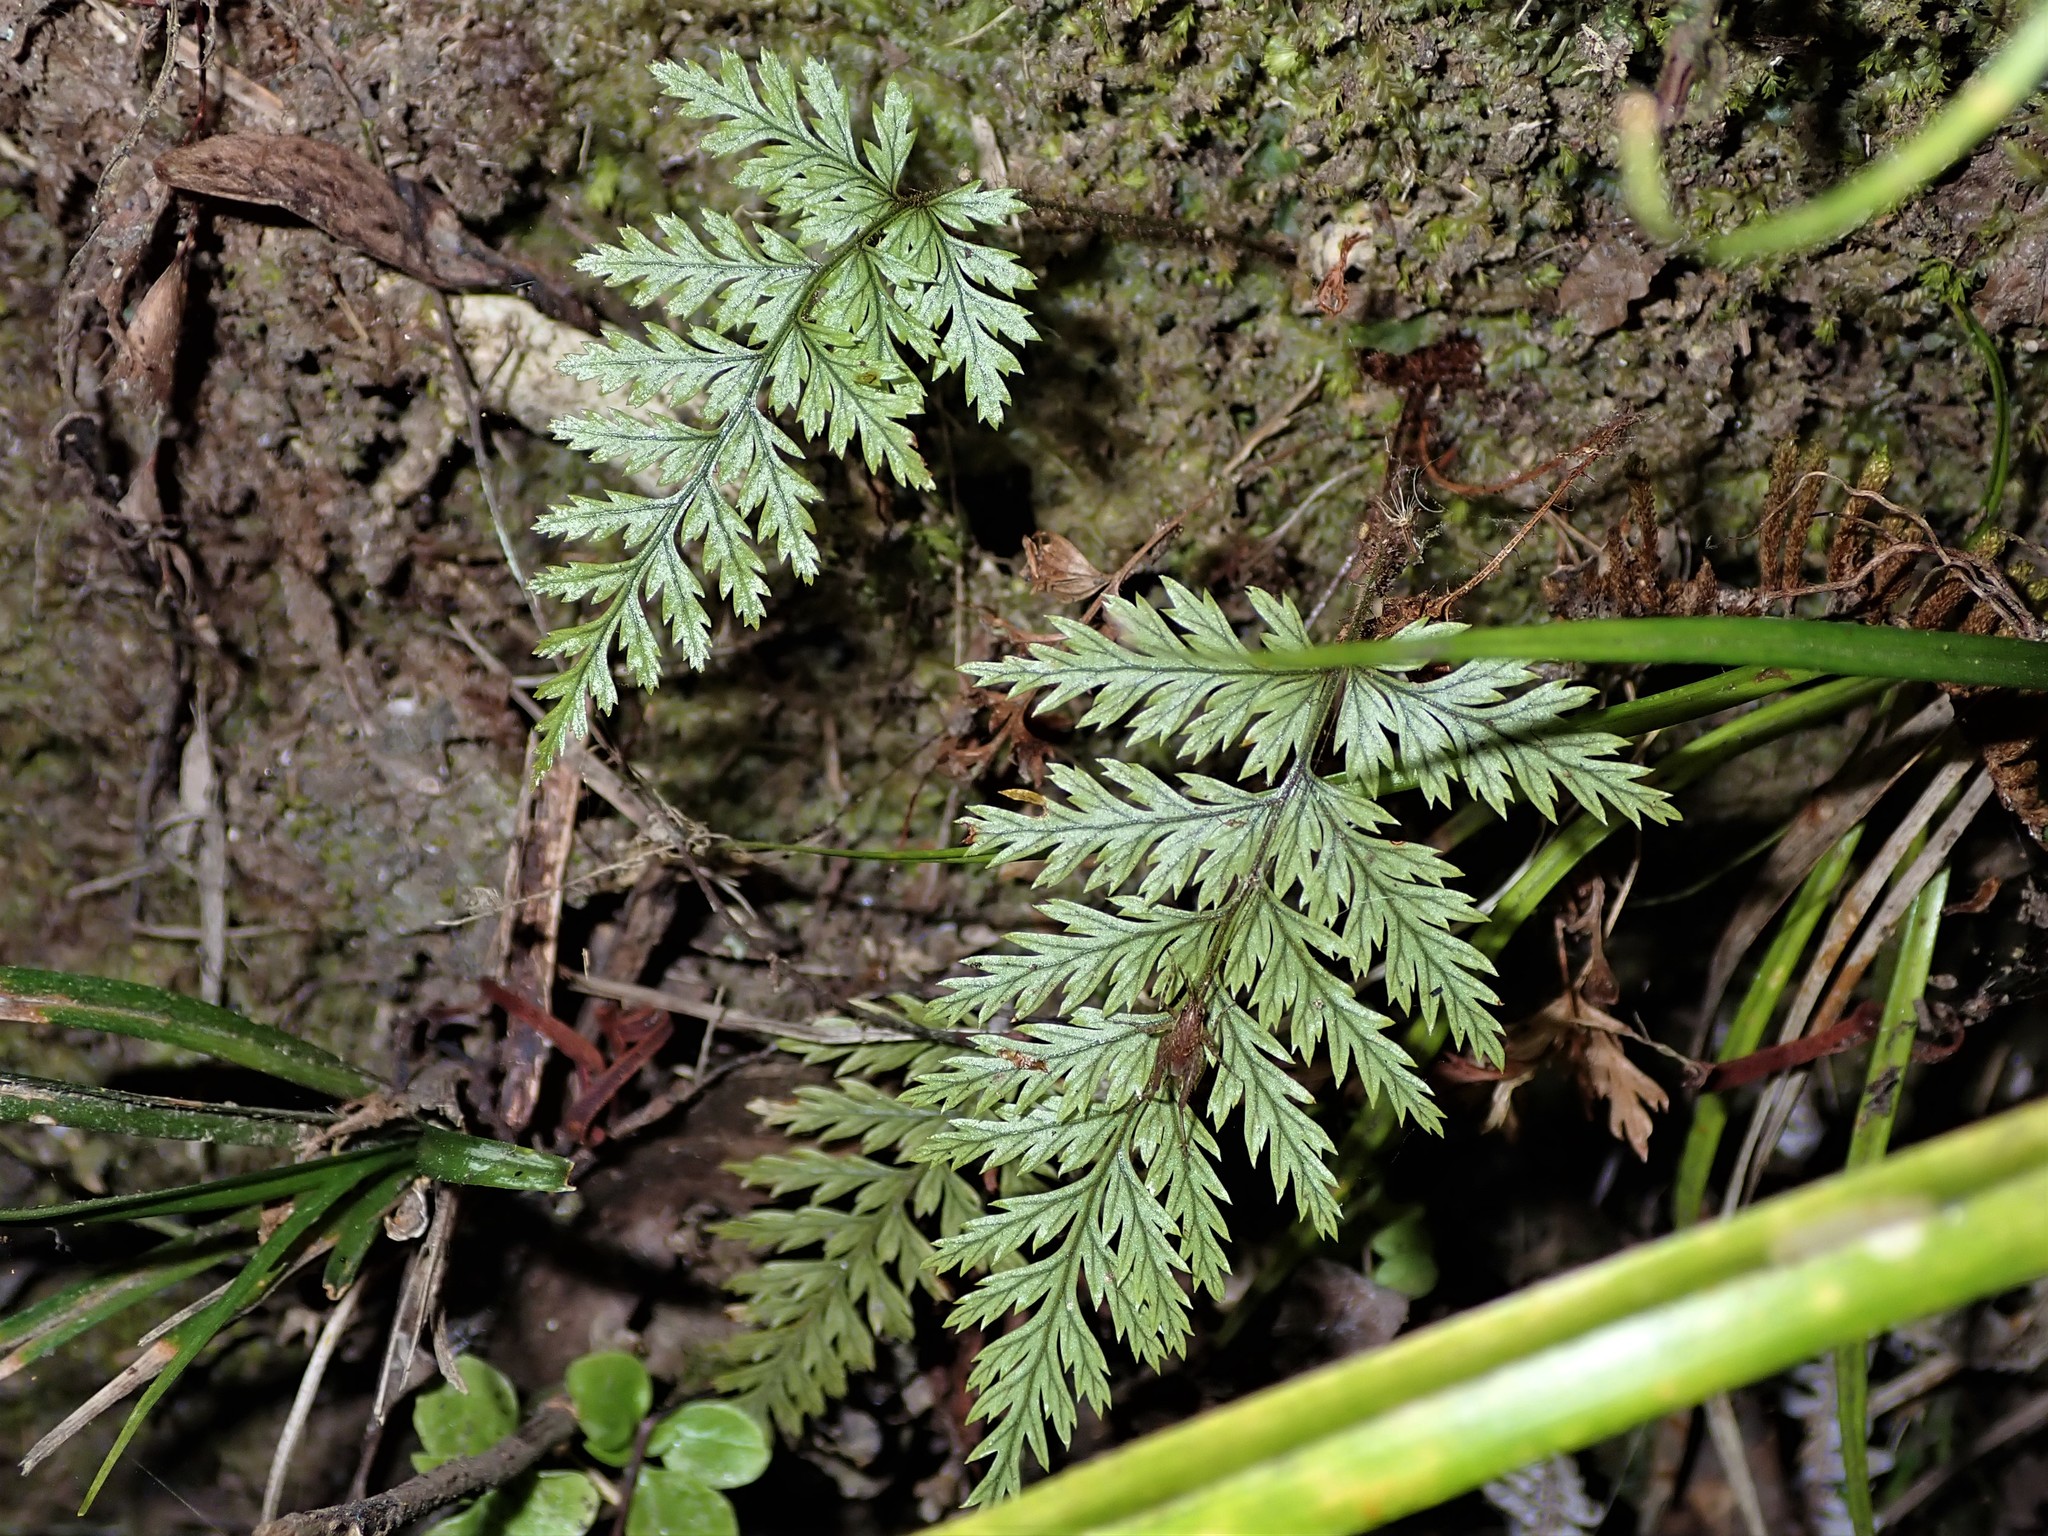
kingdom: Plantae
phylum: Tracheophyta
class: Polypodiopsida
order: Polypodiales
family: Dryopteridaceae
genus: Lastreopsis
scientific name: Lastreopsis hispida
